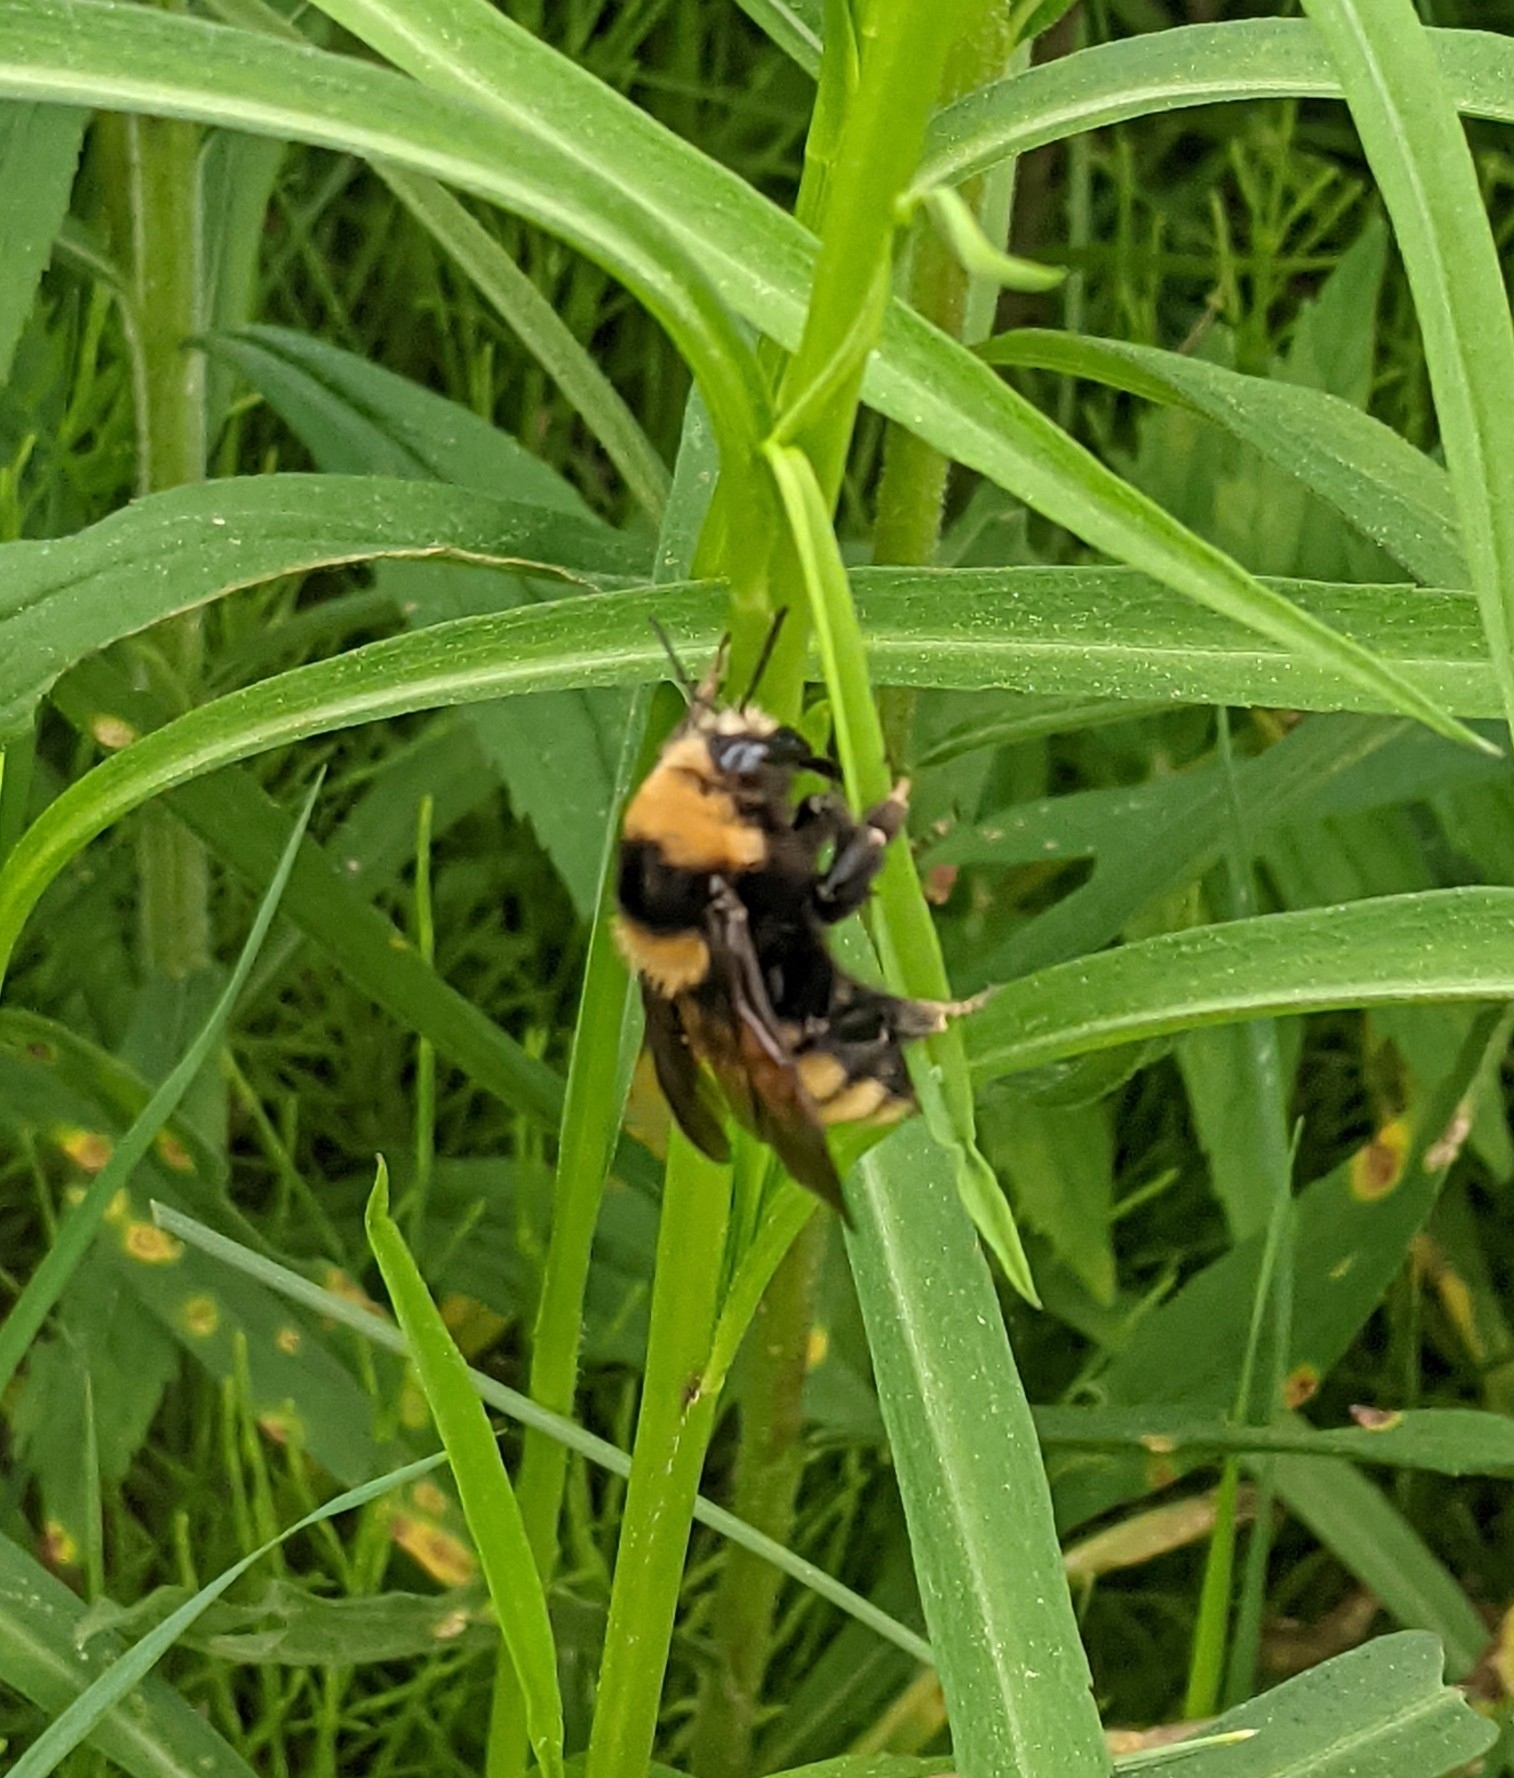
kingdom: Animalia
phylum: Arthropoda
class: Insecta
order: Hymenoptera
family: Apidae
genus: Bombus
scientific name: Bombus borealis
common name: Northern amber bumble bee
